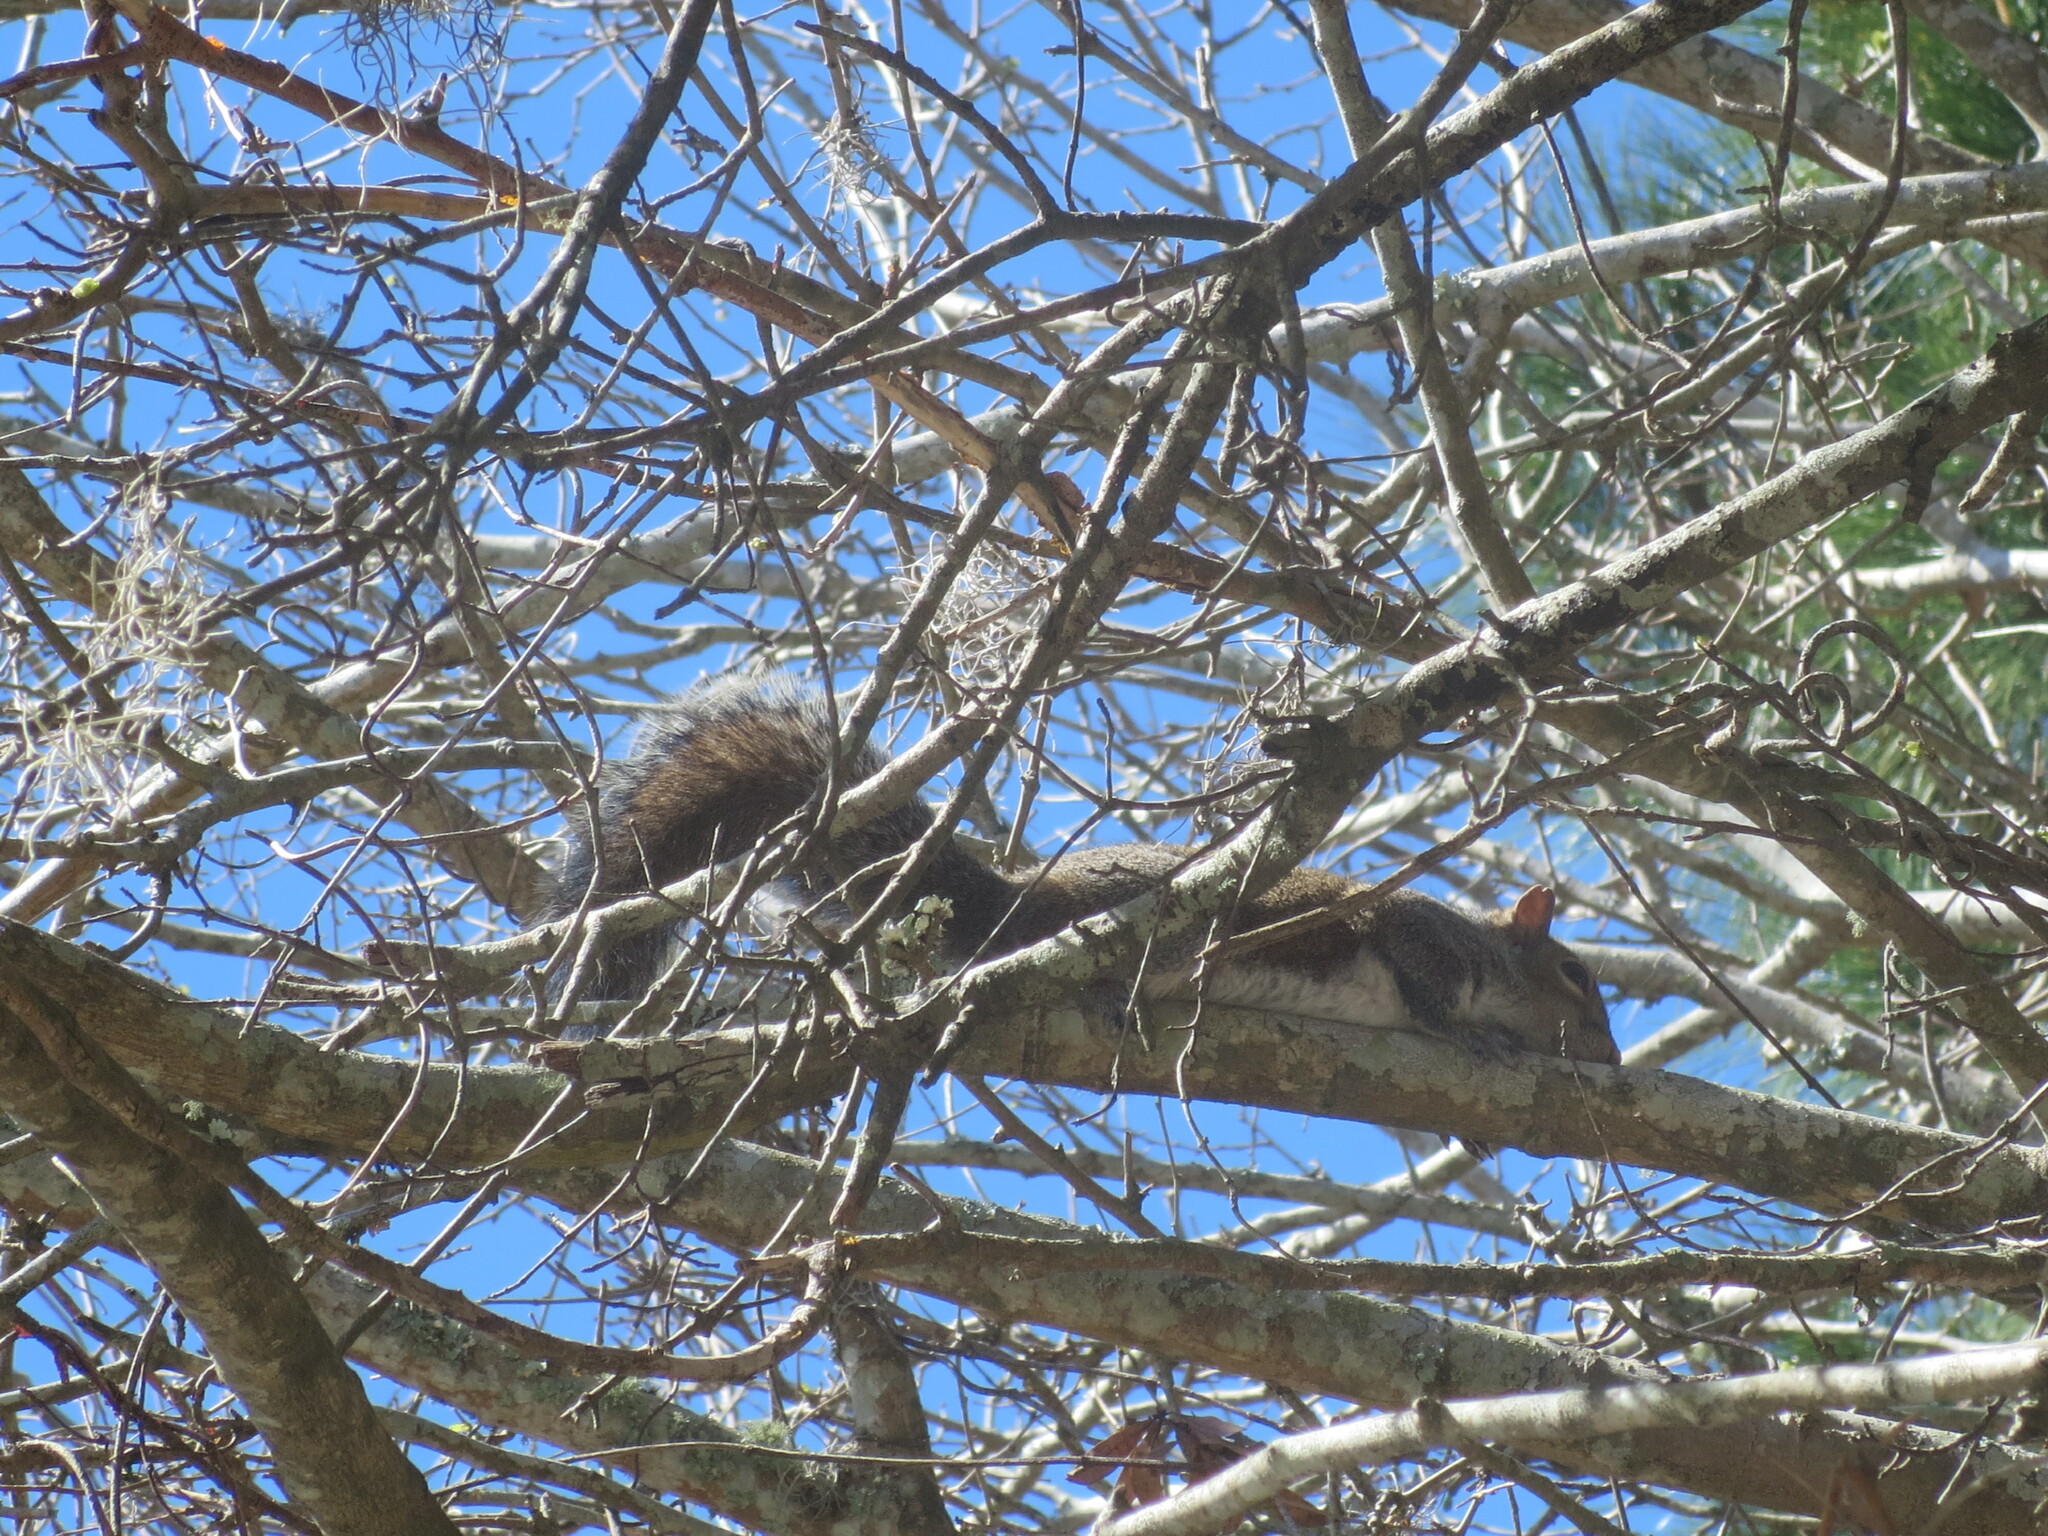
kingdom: Animalia
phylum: Chordata
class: Mammalia
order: Rodentia
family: Sciuridae
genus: Sciurus
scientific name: Sciurus carolinensis
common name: Eastern gray squirrel
